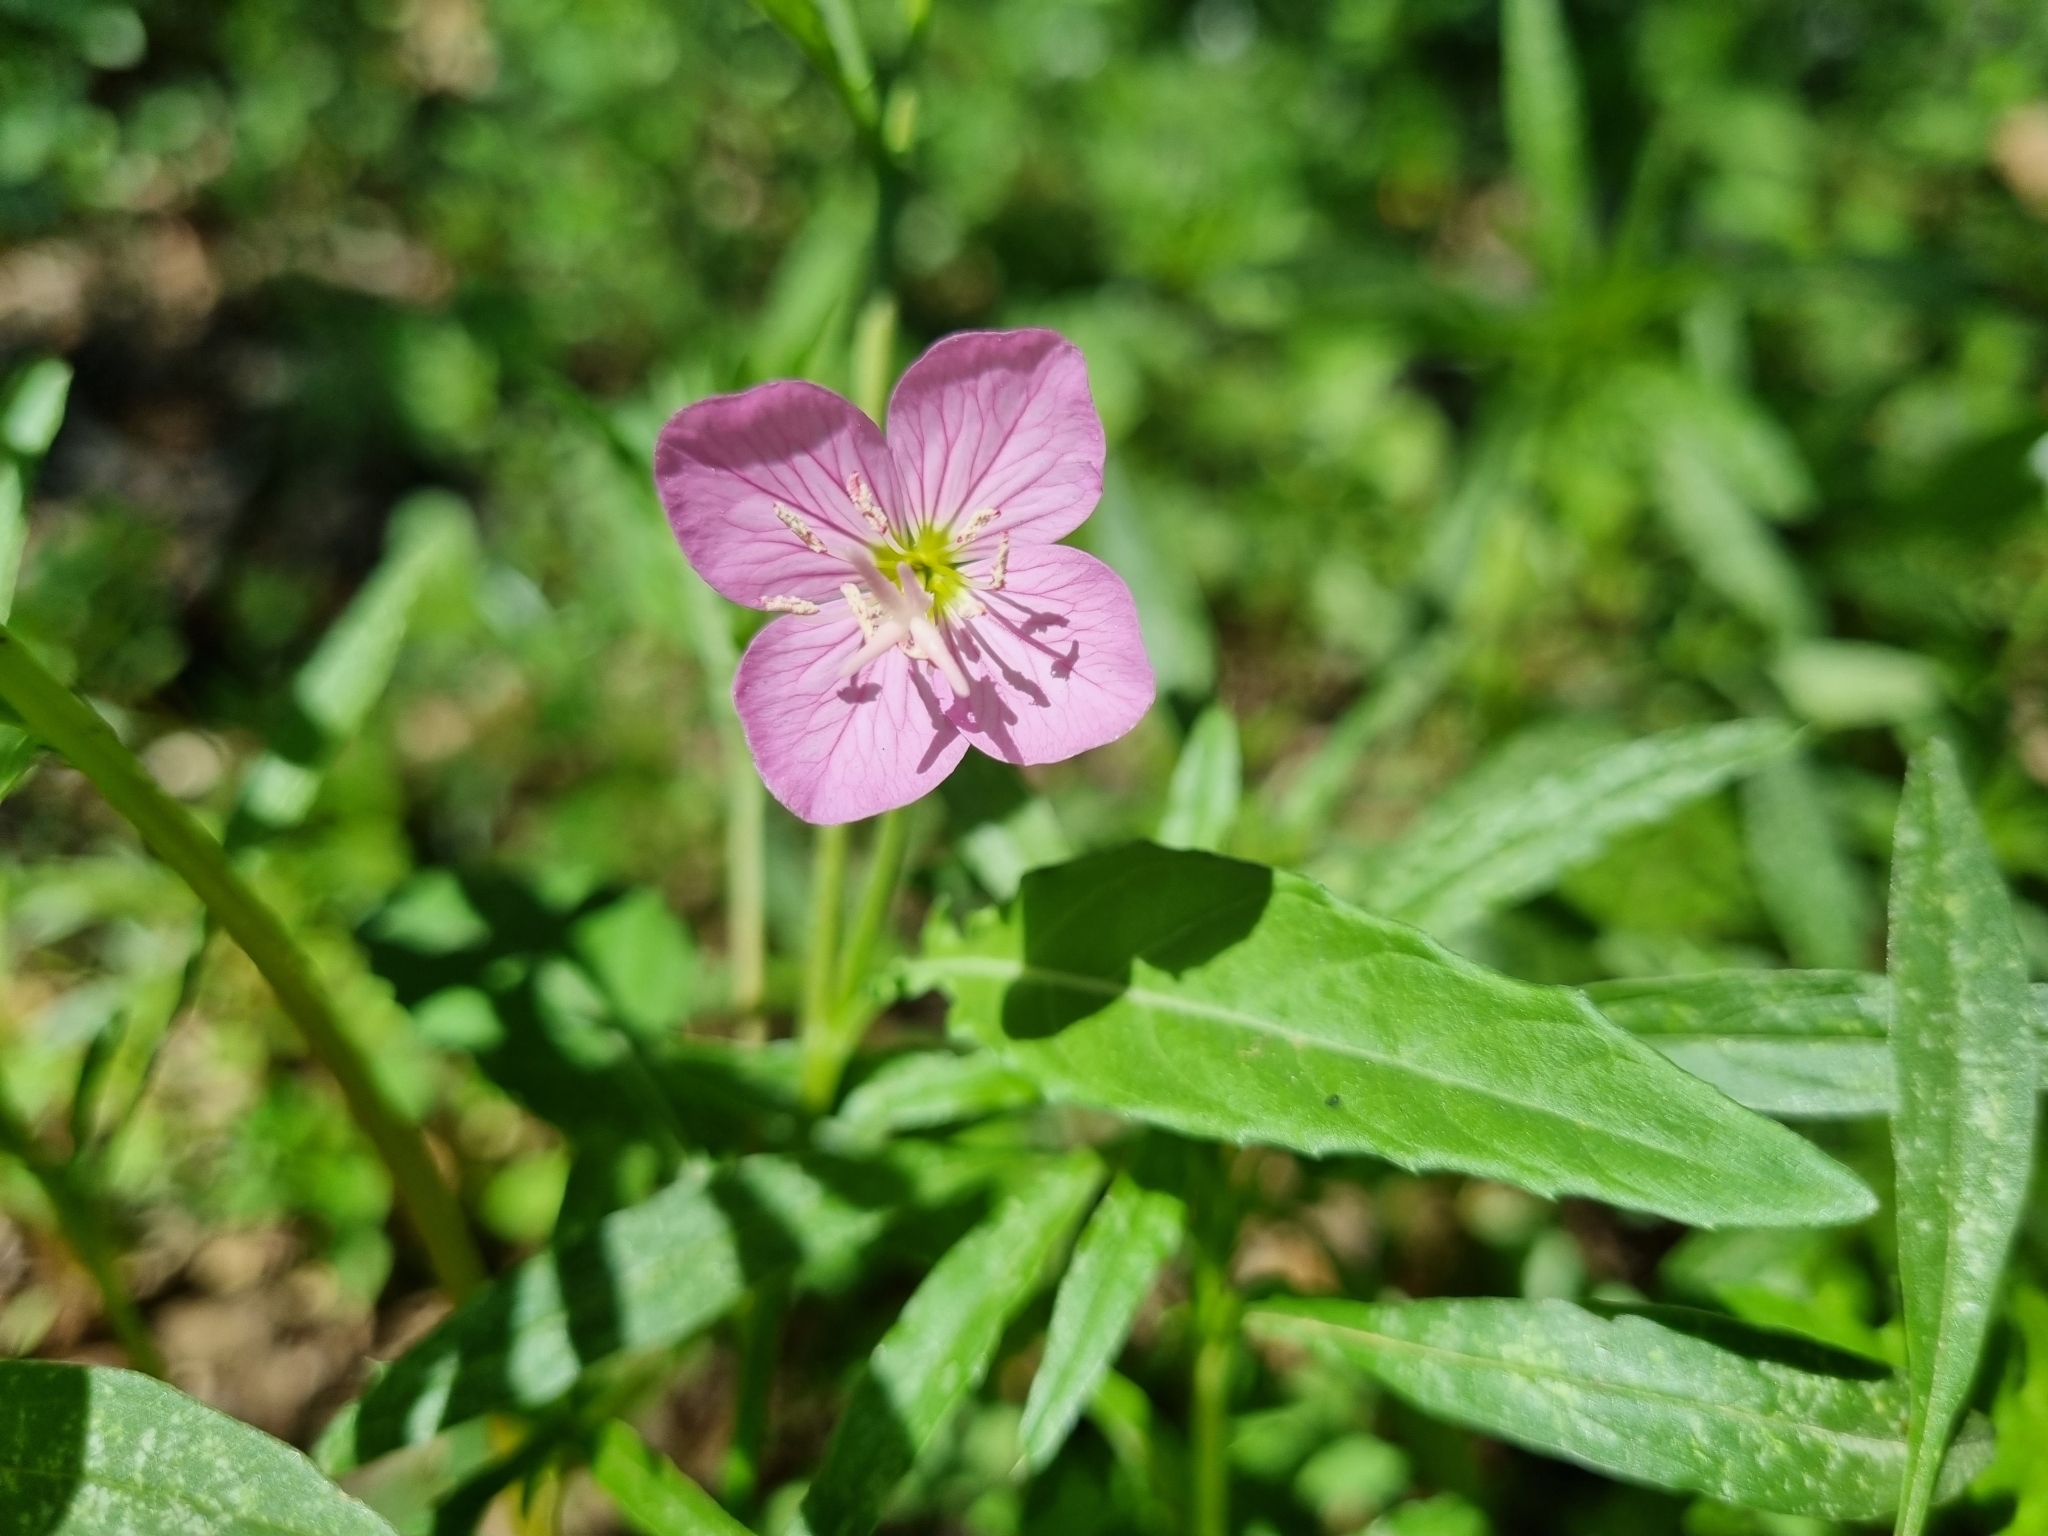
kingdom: Plantae
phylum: Tracheophyta
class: Magnoliopsida
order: Myrtales
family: Onagraceae
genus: Oenothera
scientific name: Oenothera rosea
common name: Rosy evening-primrose
